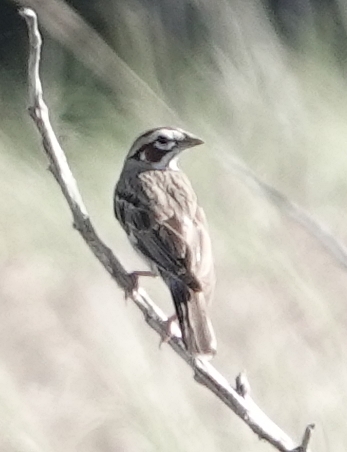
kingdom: Animalia
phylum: Chordata
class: Aves
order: Passeriformes
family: Passerellidae
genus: Chondestes
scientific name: Chondestes grammacus
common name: Lark sparrow
